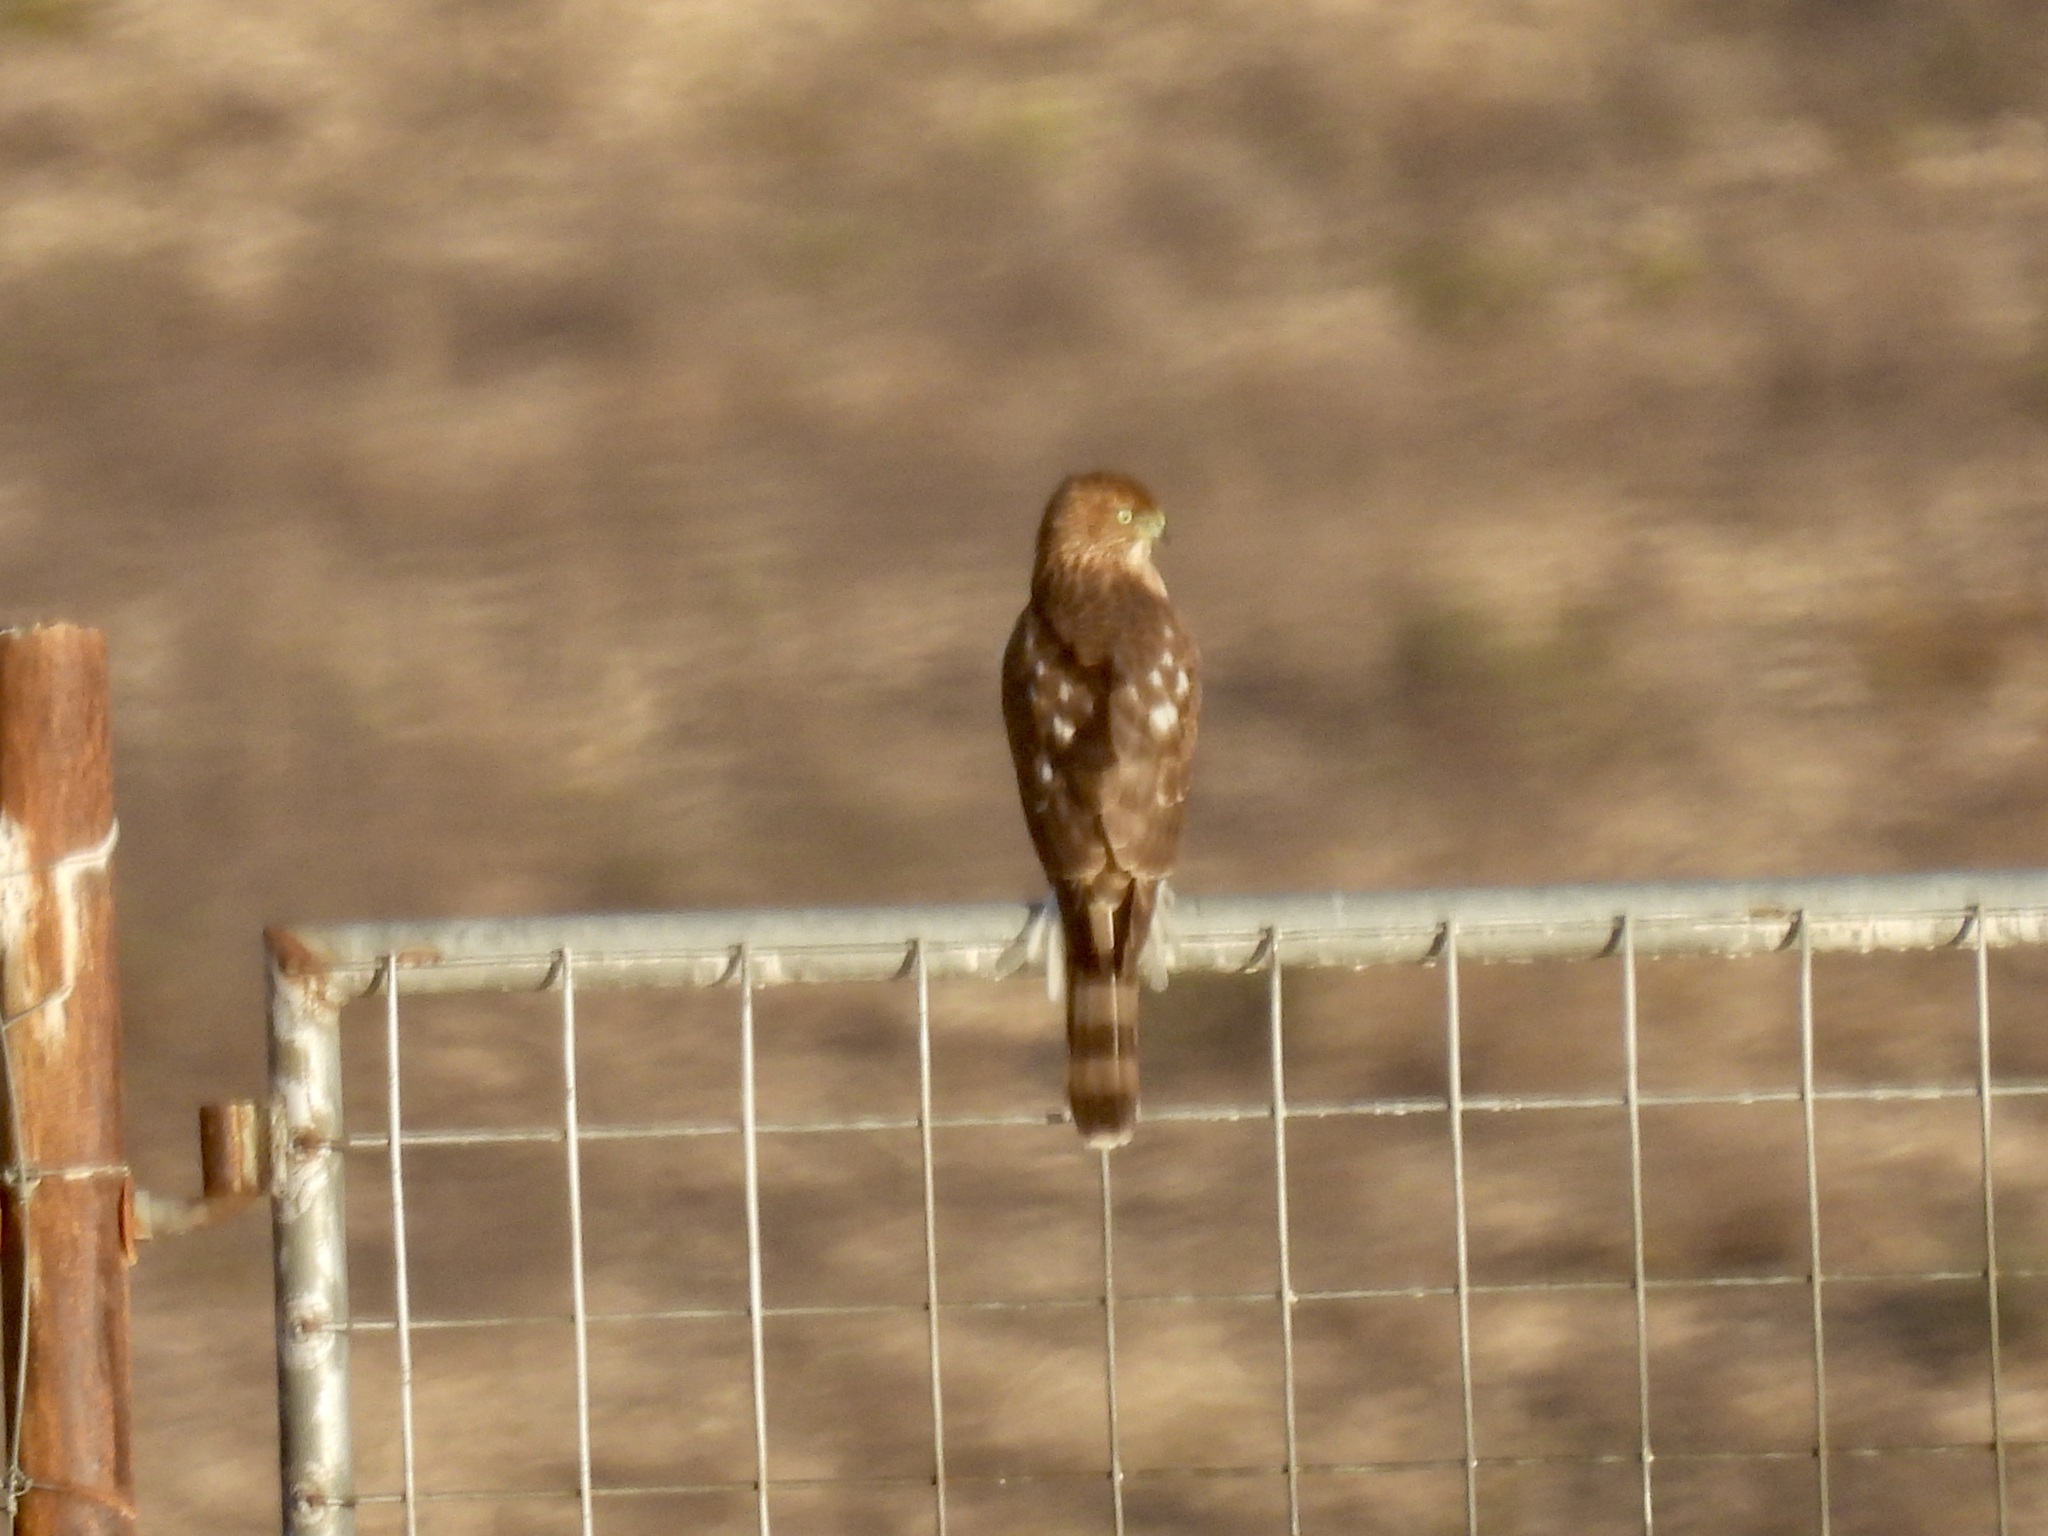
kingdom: Animalia
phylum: Chordata
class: Aves
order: Accipitriformes
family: Accipitridae
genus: Accipiter
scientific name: Accipiter cooperii
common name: Cooper's hawk
